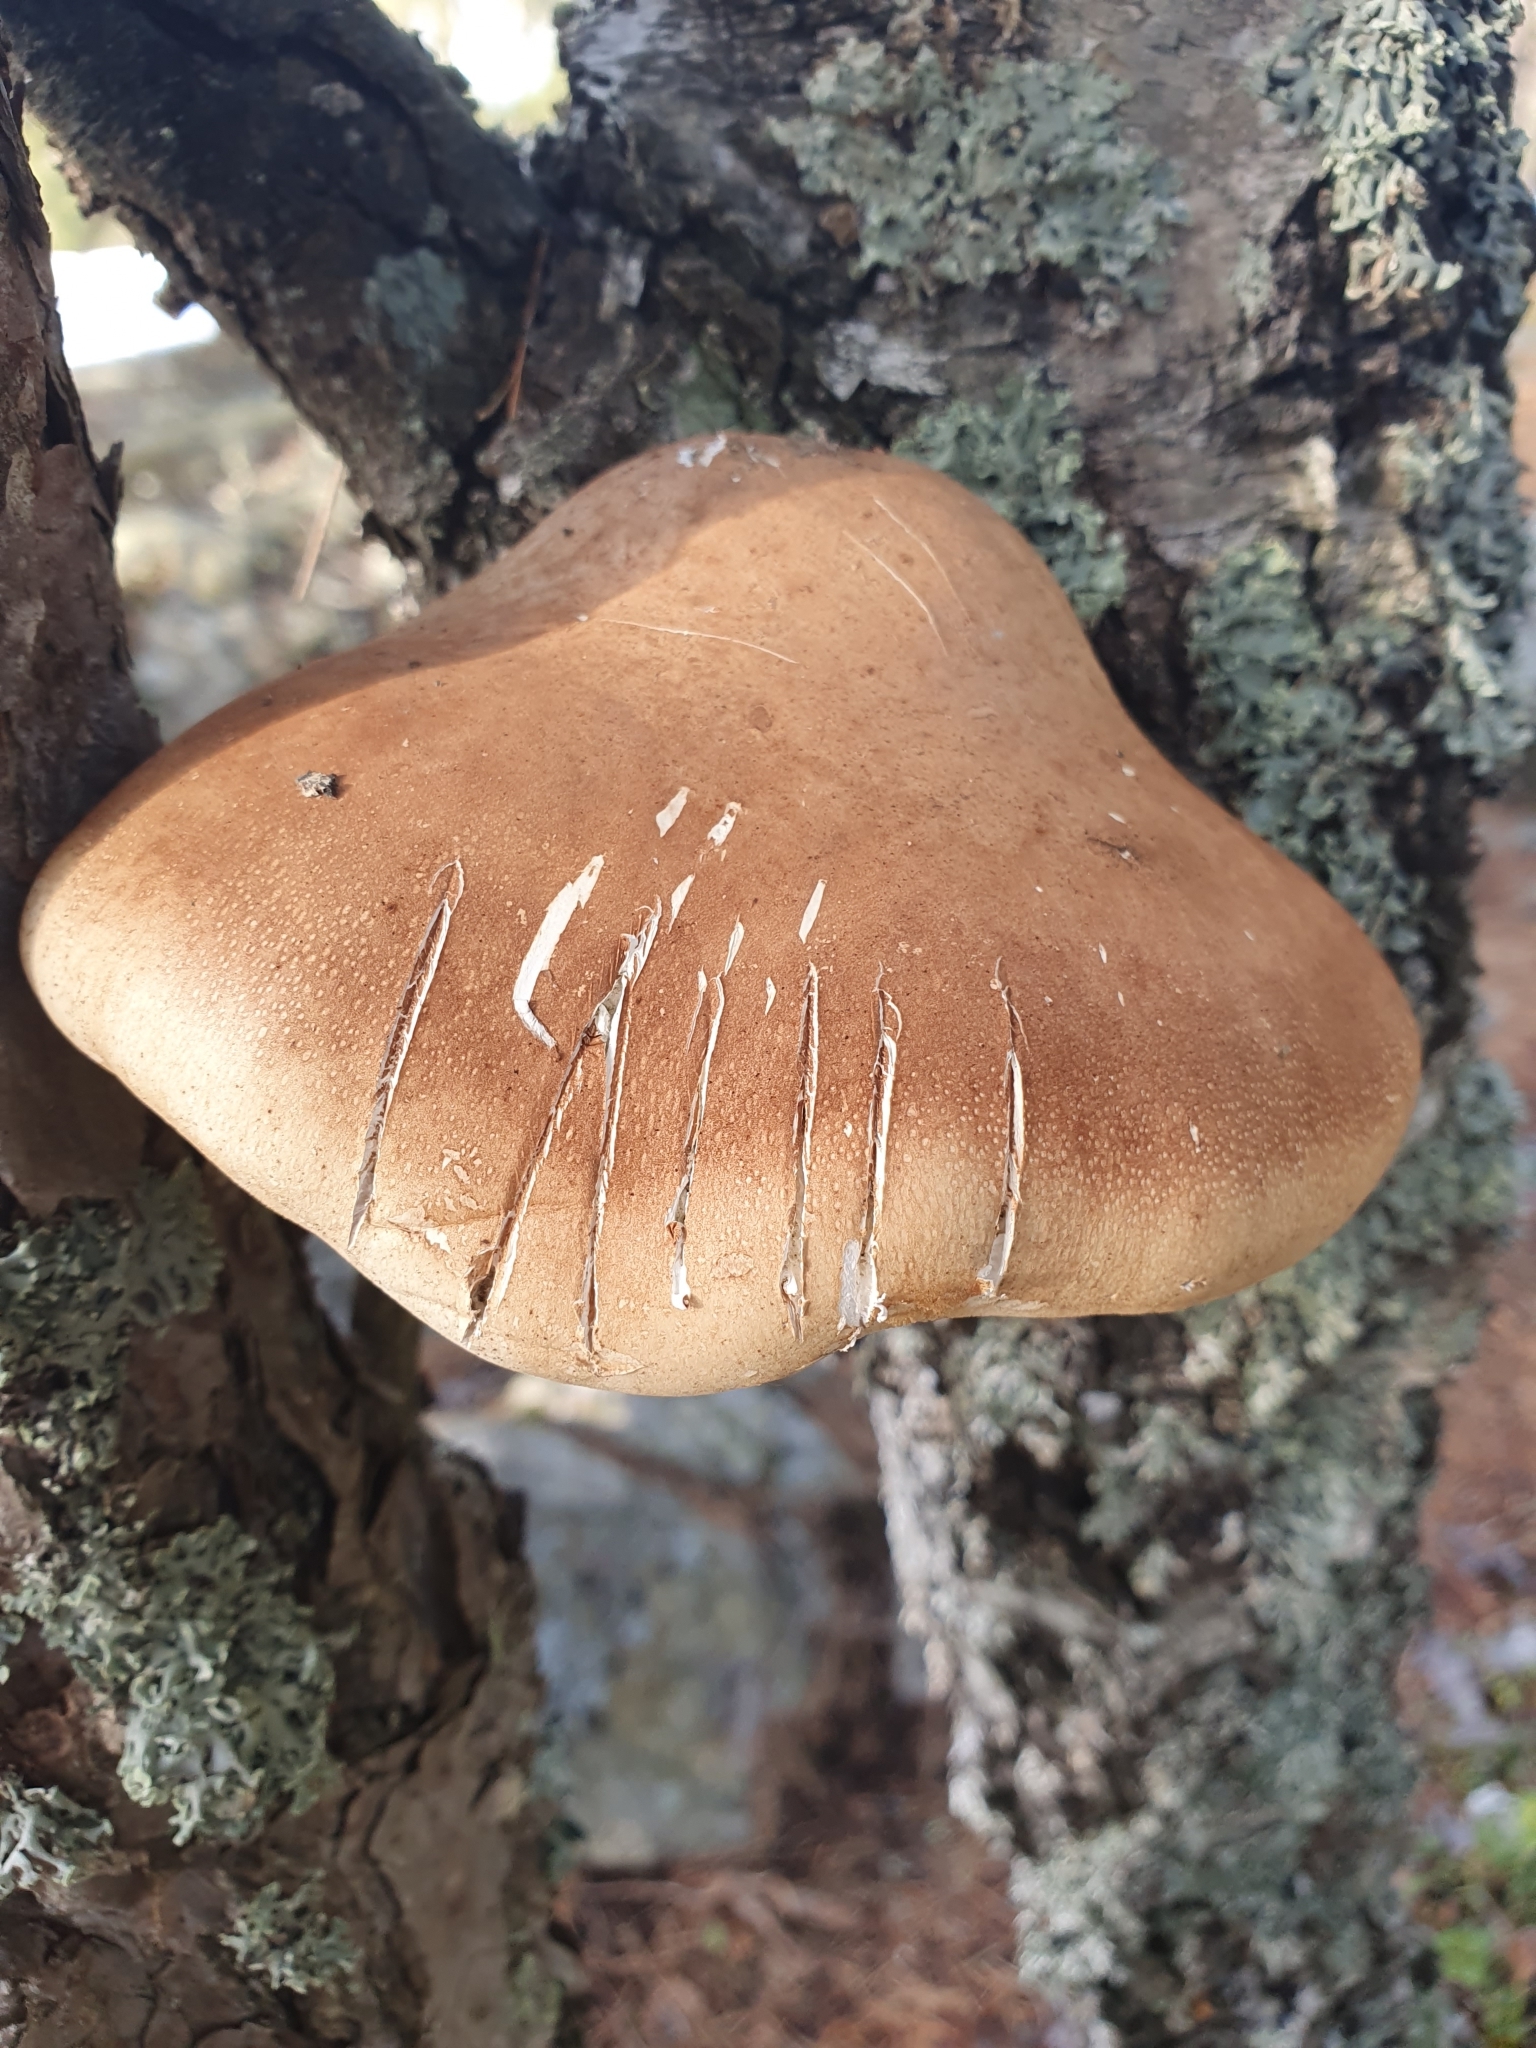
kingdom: Fungi
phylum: Basidiomycota
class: Agaricomycetes
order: Polyporales
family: Fomitopsidaceae
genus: Fomitopsis
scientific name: Fomitopsis betulina
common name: Birch polypore
